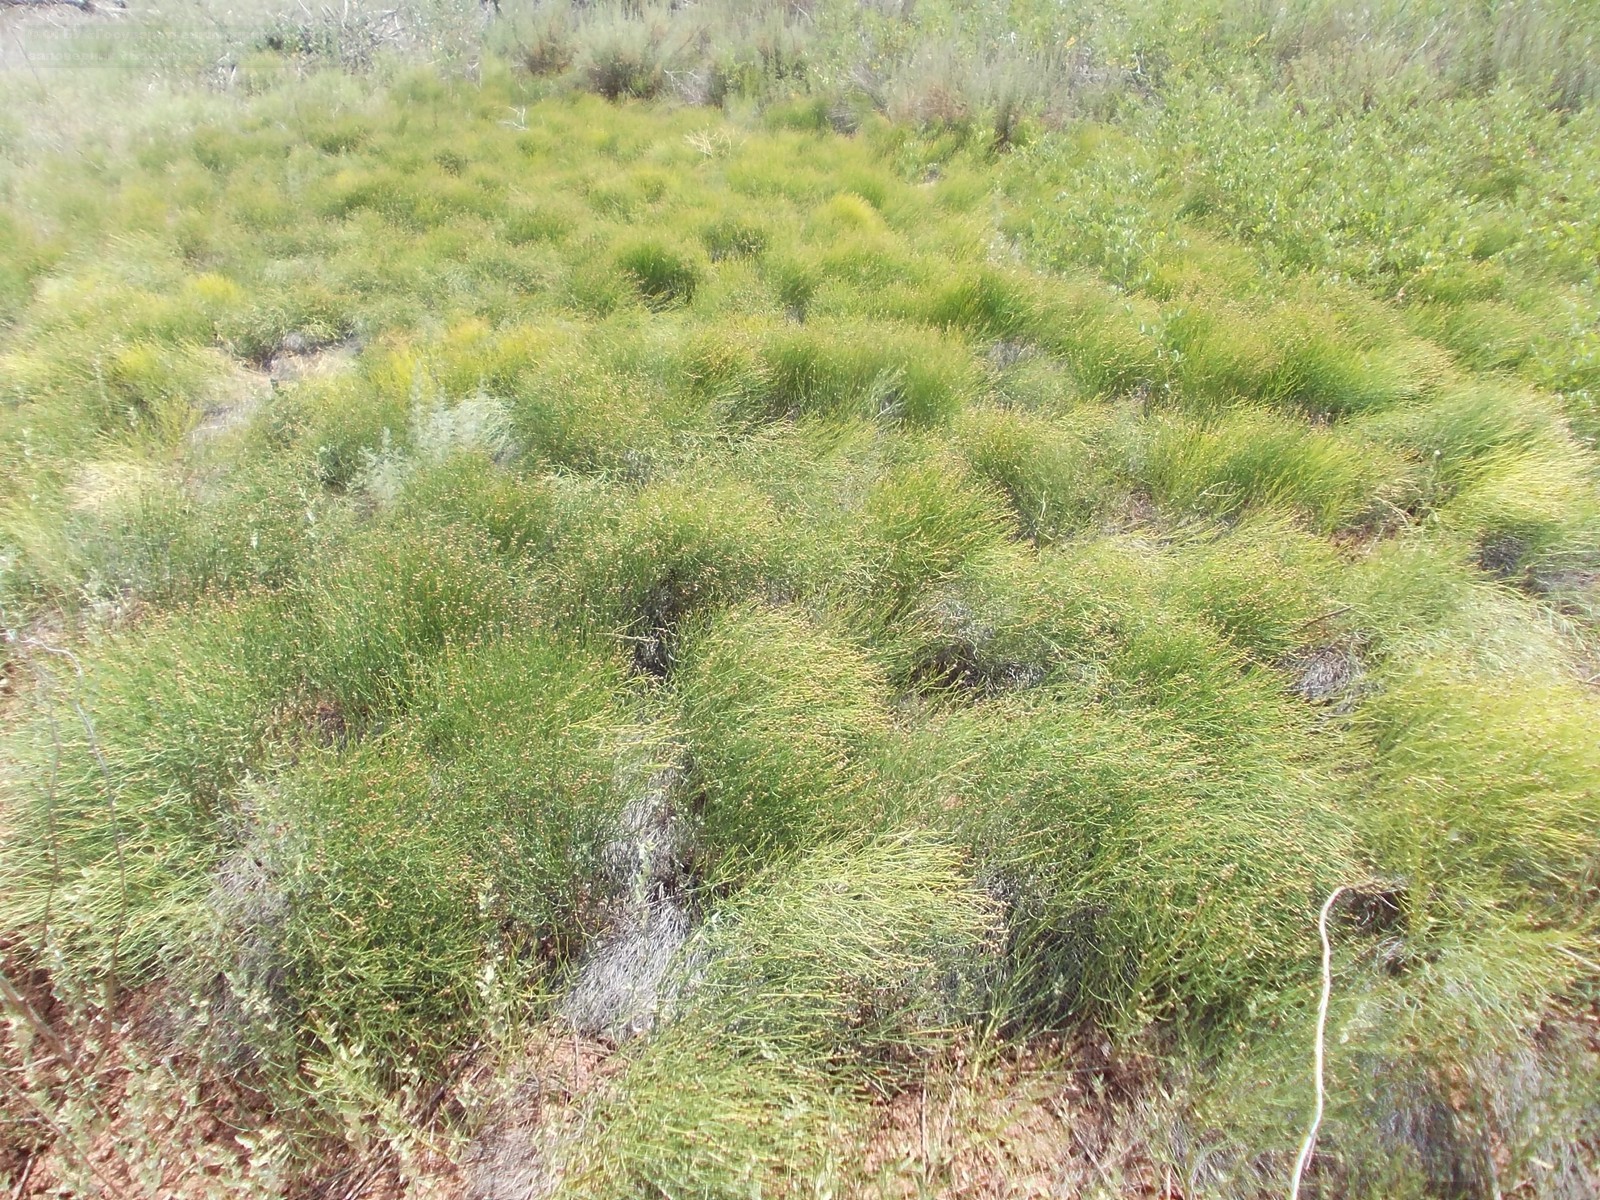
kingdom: Plantae
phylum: Tracheophyta
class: Magnoliopsida
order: Lamiales
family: Mazaceae
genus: Dodartia
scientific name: Dodartia orientalis
